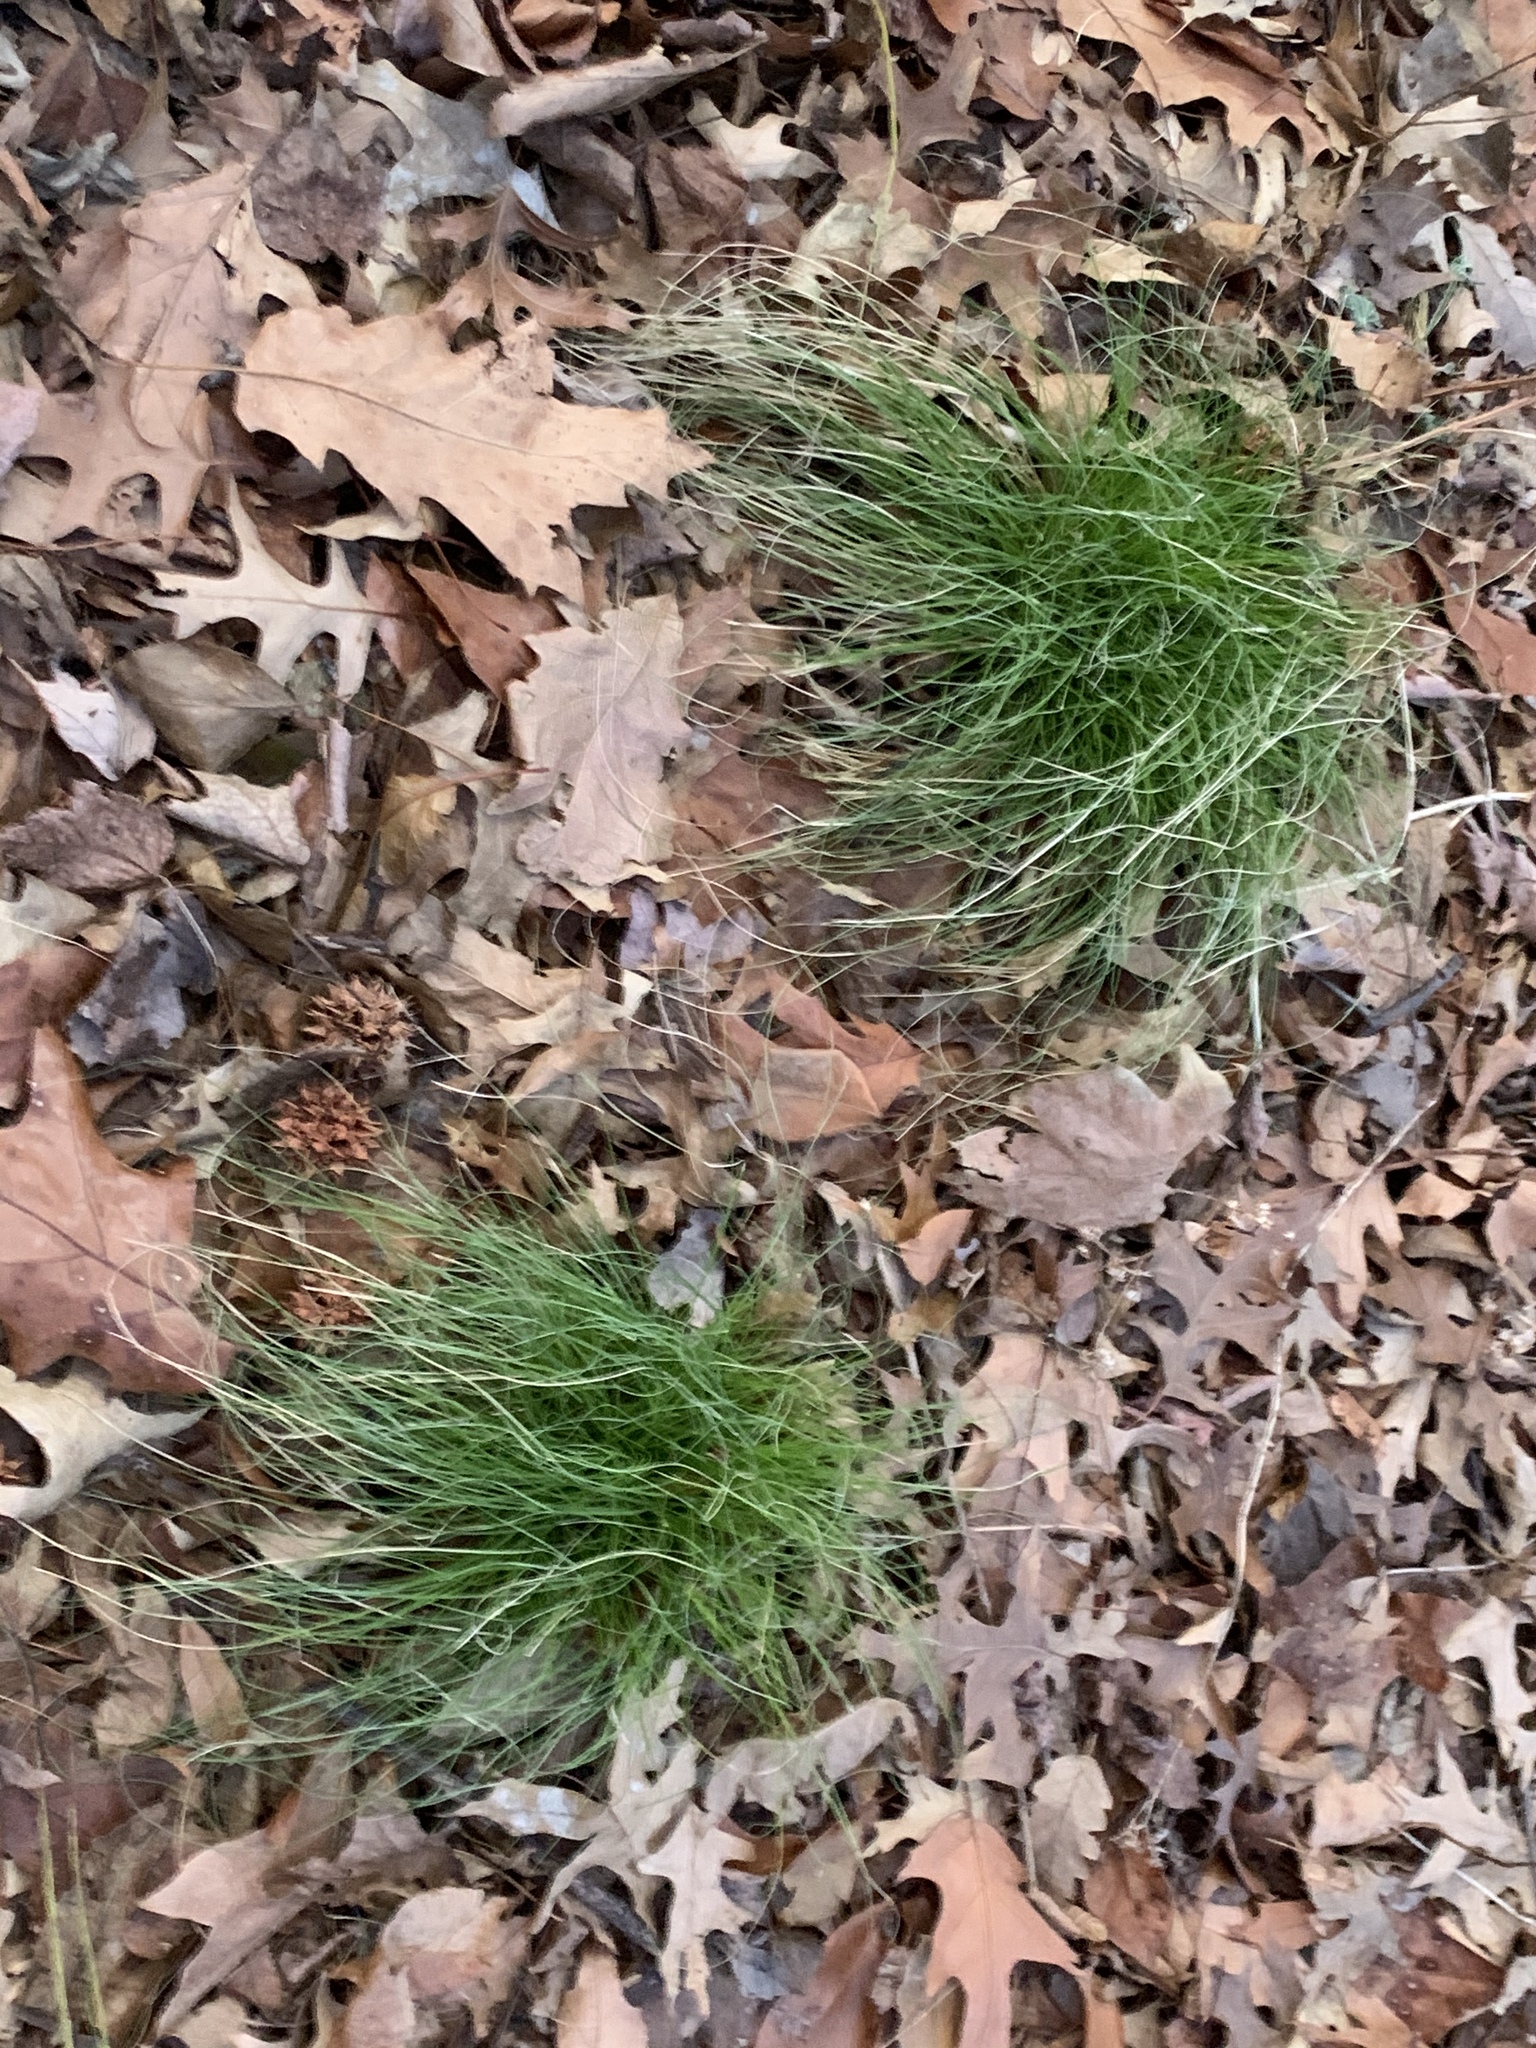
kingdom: Plantae
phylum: Tracheophyta
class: Liliopsida
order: Asparagales
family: Amaryllidaceae
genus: Allium
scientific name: Allium vineale
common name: Crow garlic
